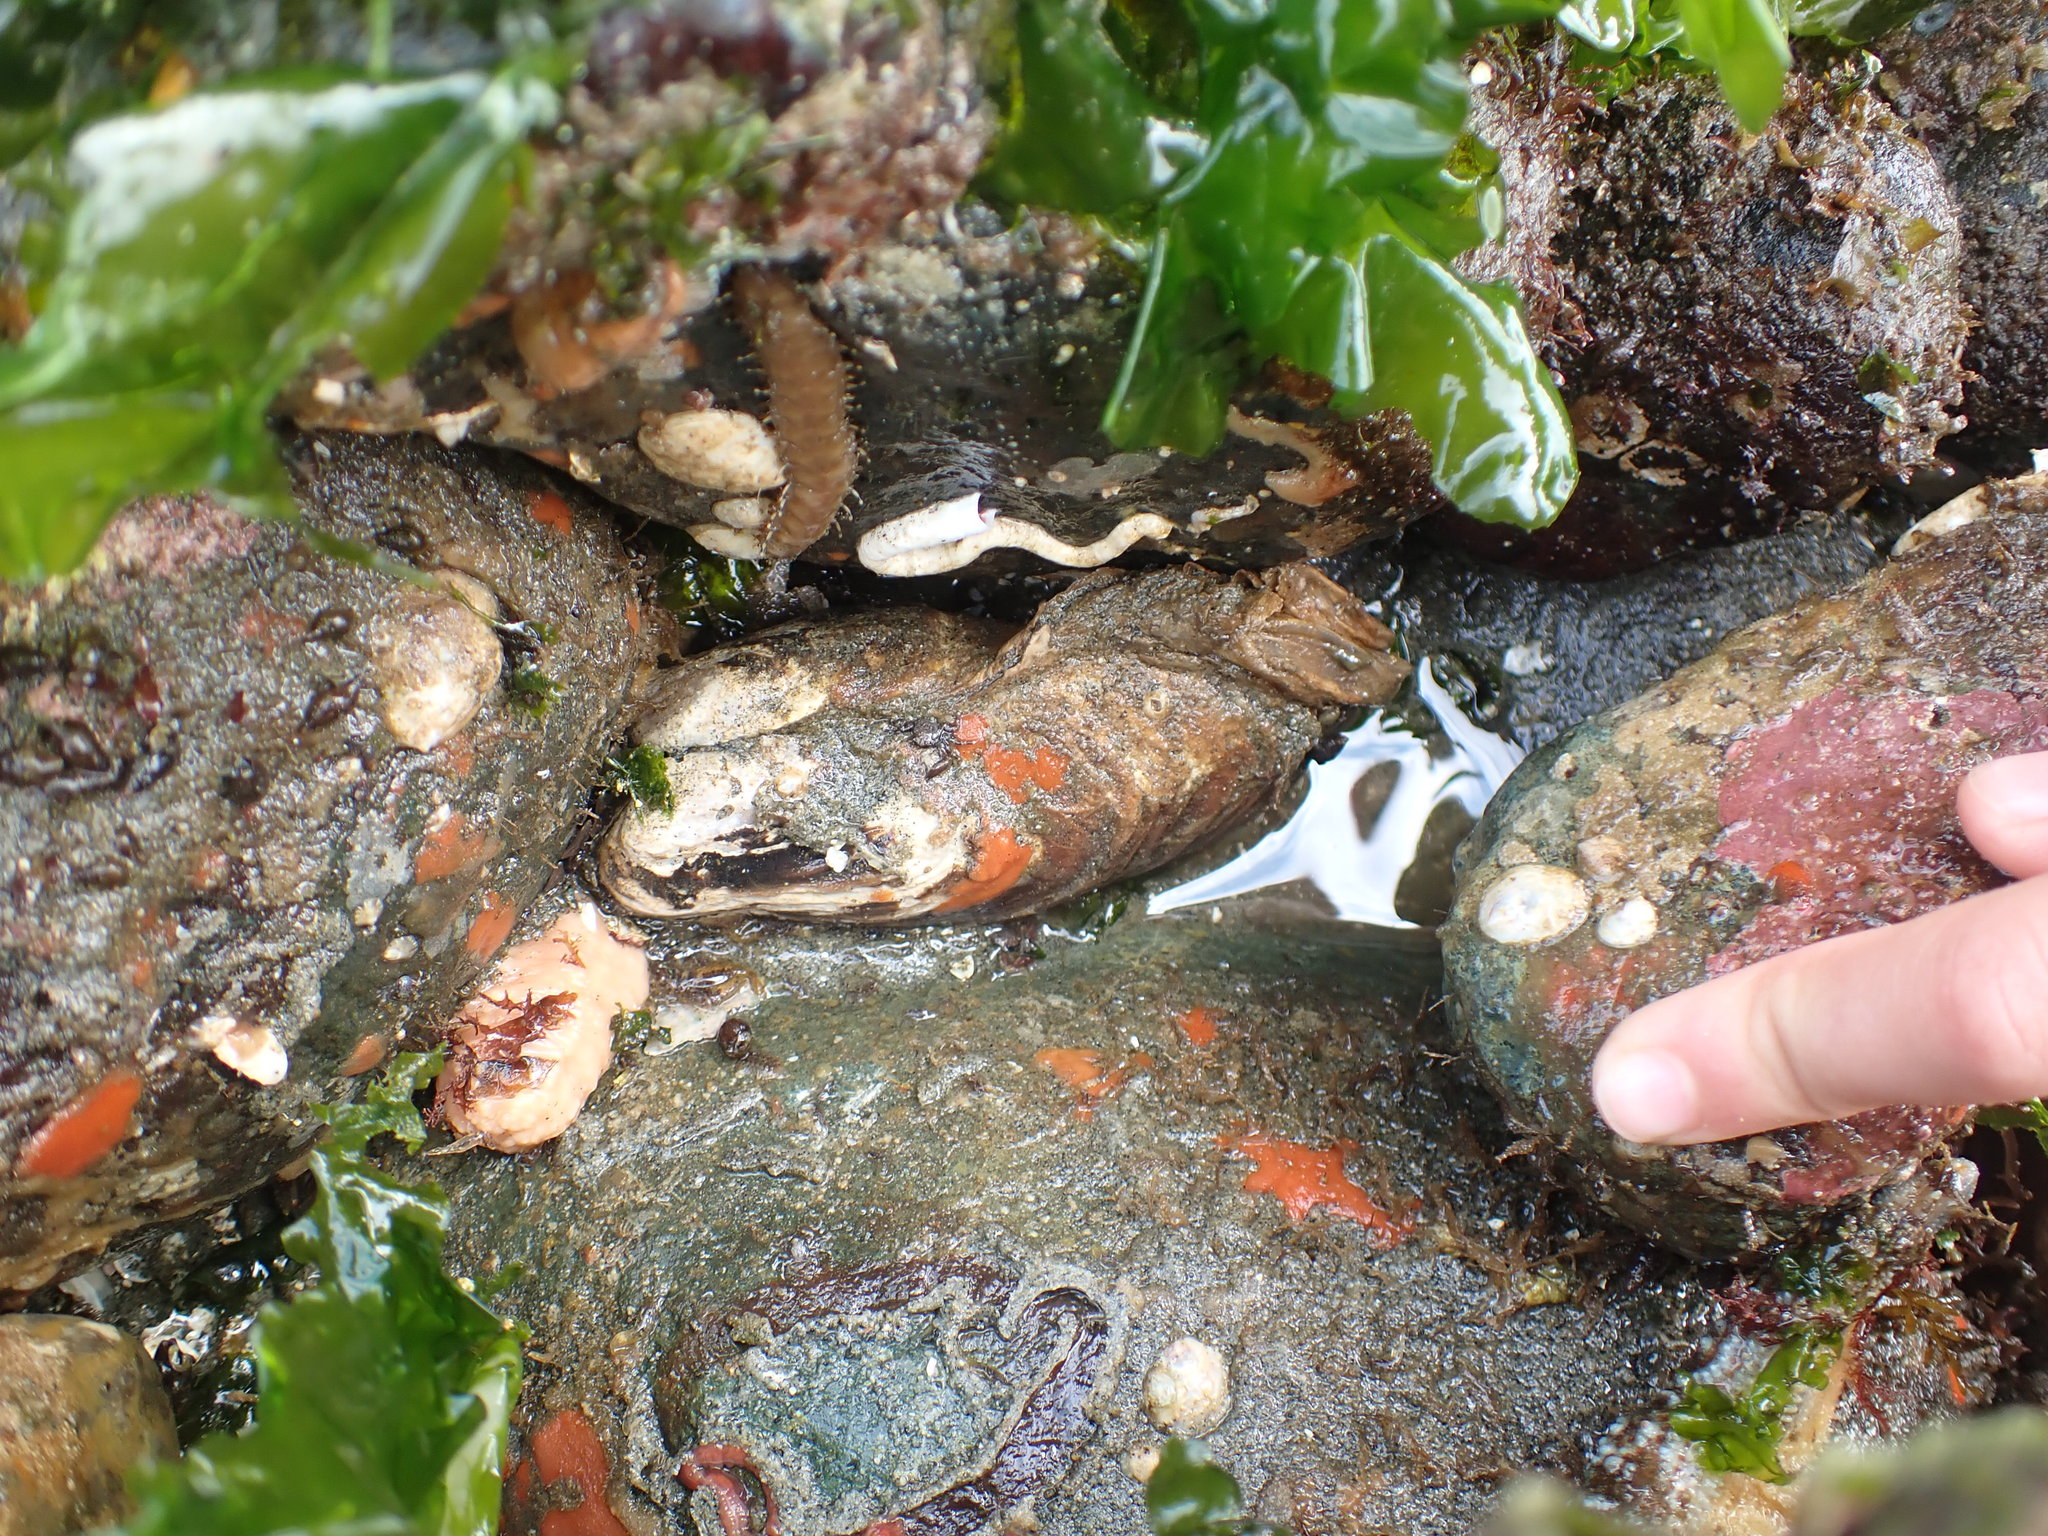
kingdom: Animalia
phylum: Mollusca
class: Bivalvia
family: Lyonsiidae
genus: Entodesma
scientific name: Entodesma navicula
